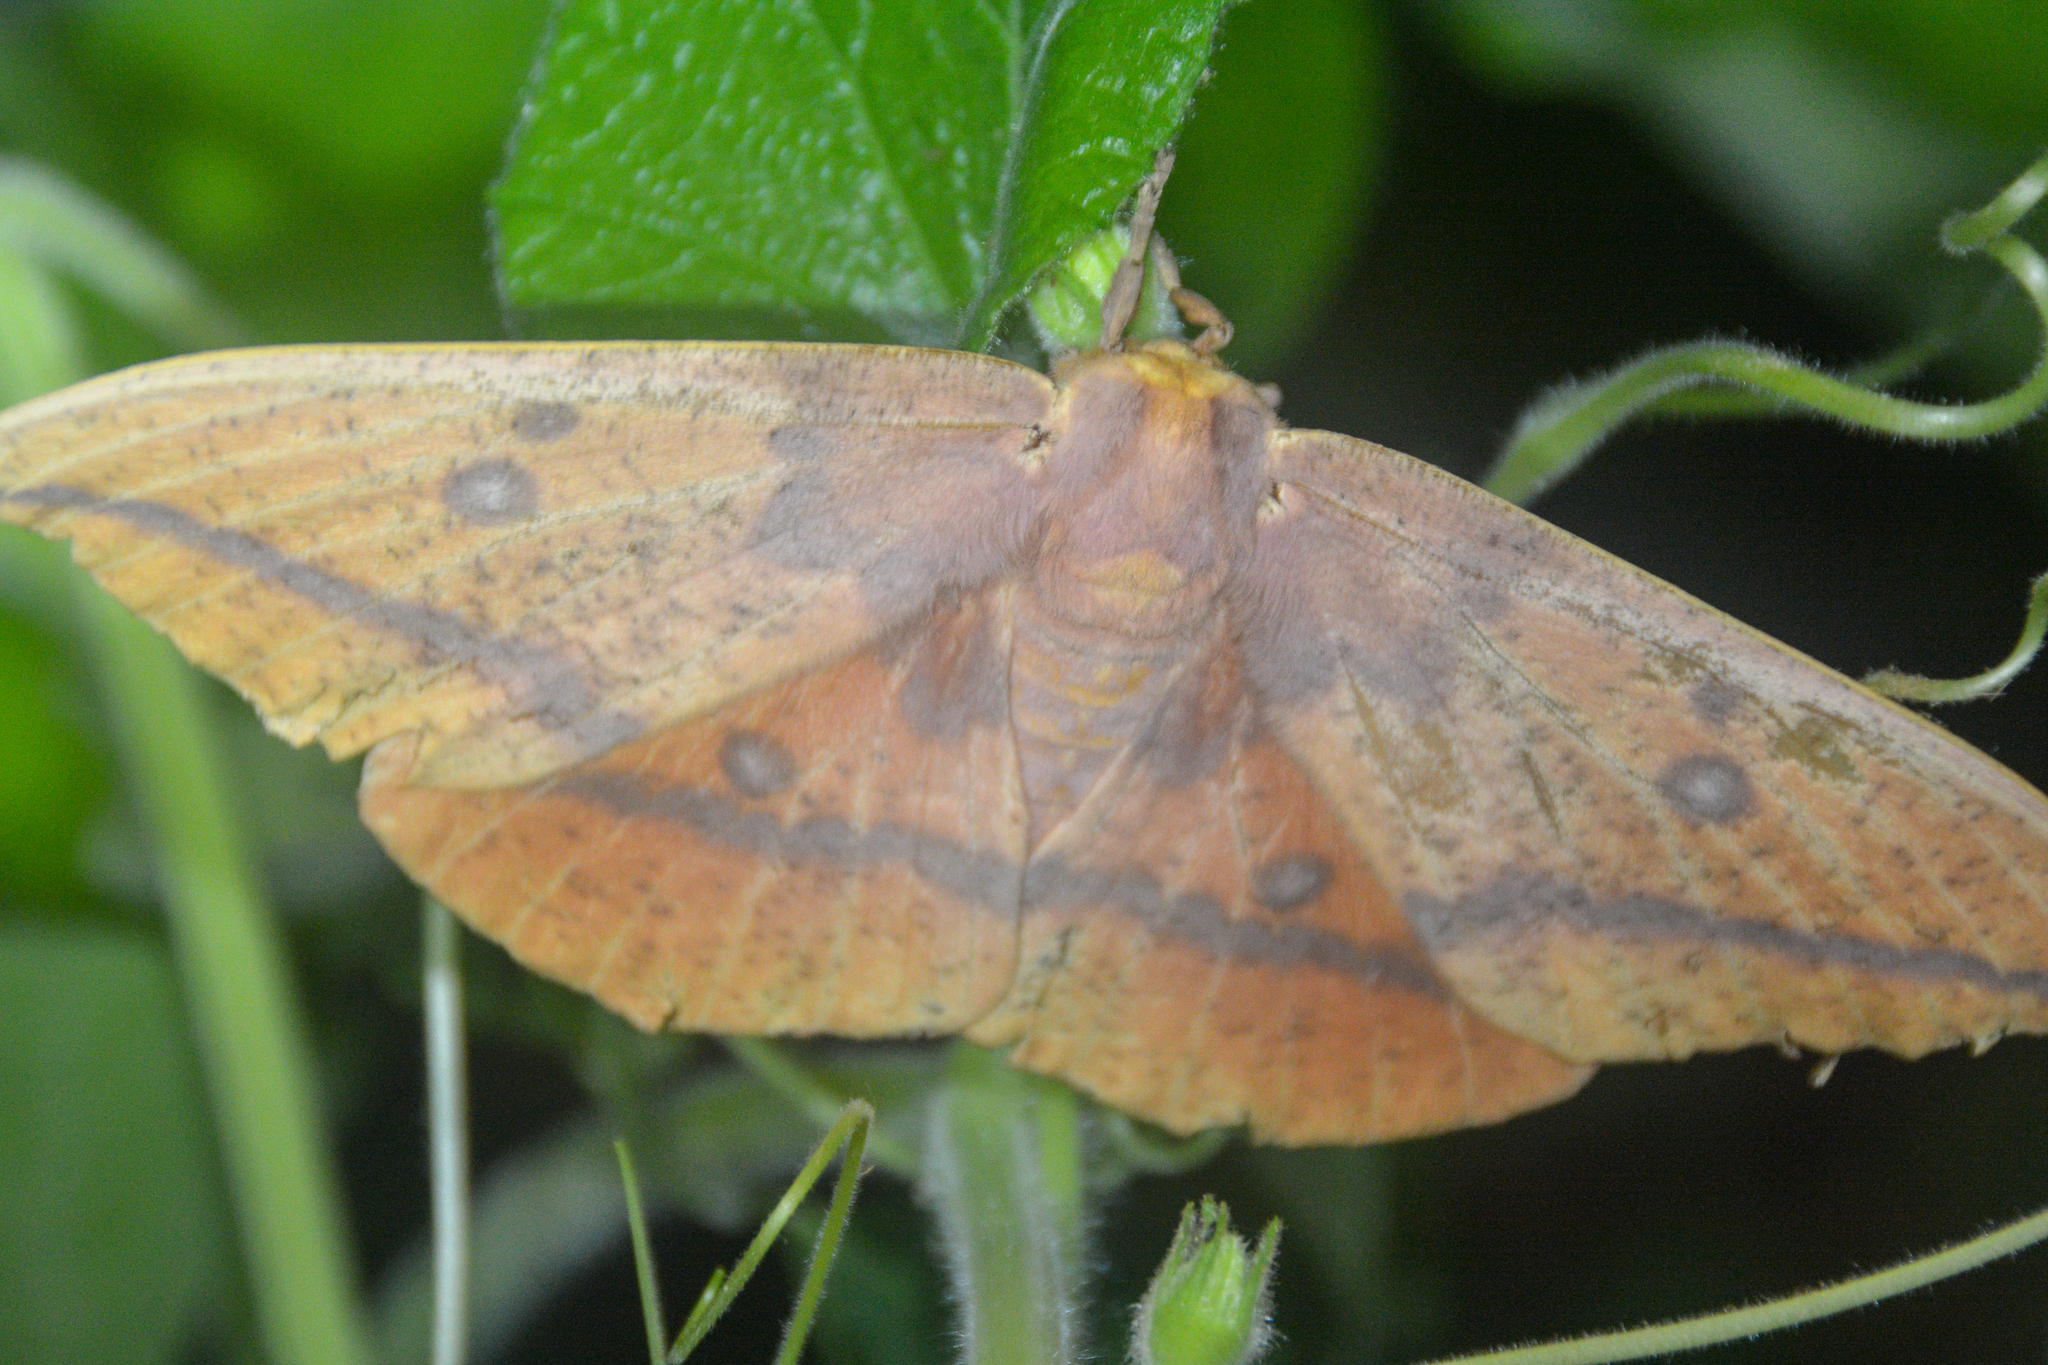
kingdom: Animalia
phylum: Arthropoda
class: Insecta
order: Lepidoptera
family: Saturniidae
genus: Eacles
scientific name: Eacles imperialis
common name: Imperial moth
